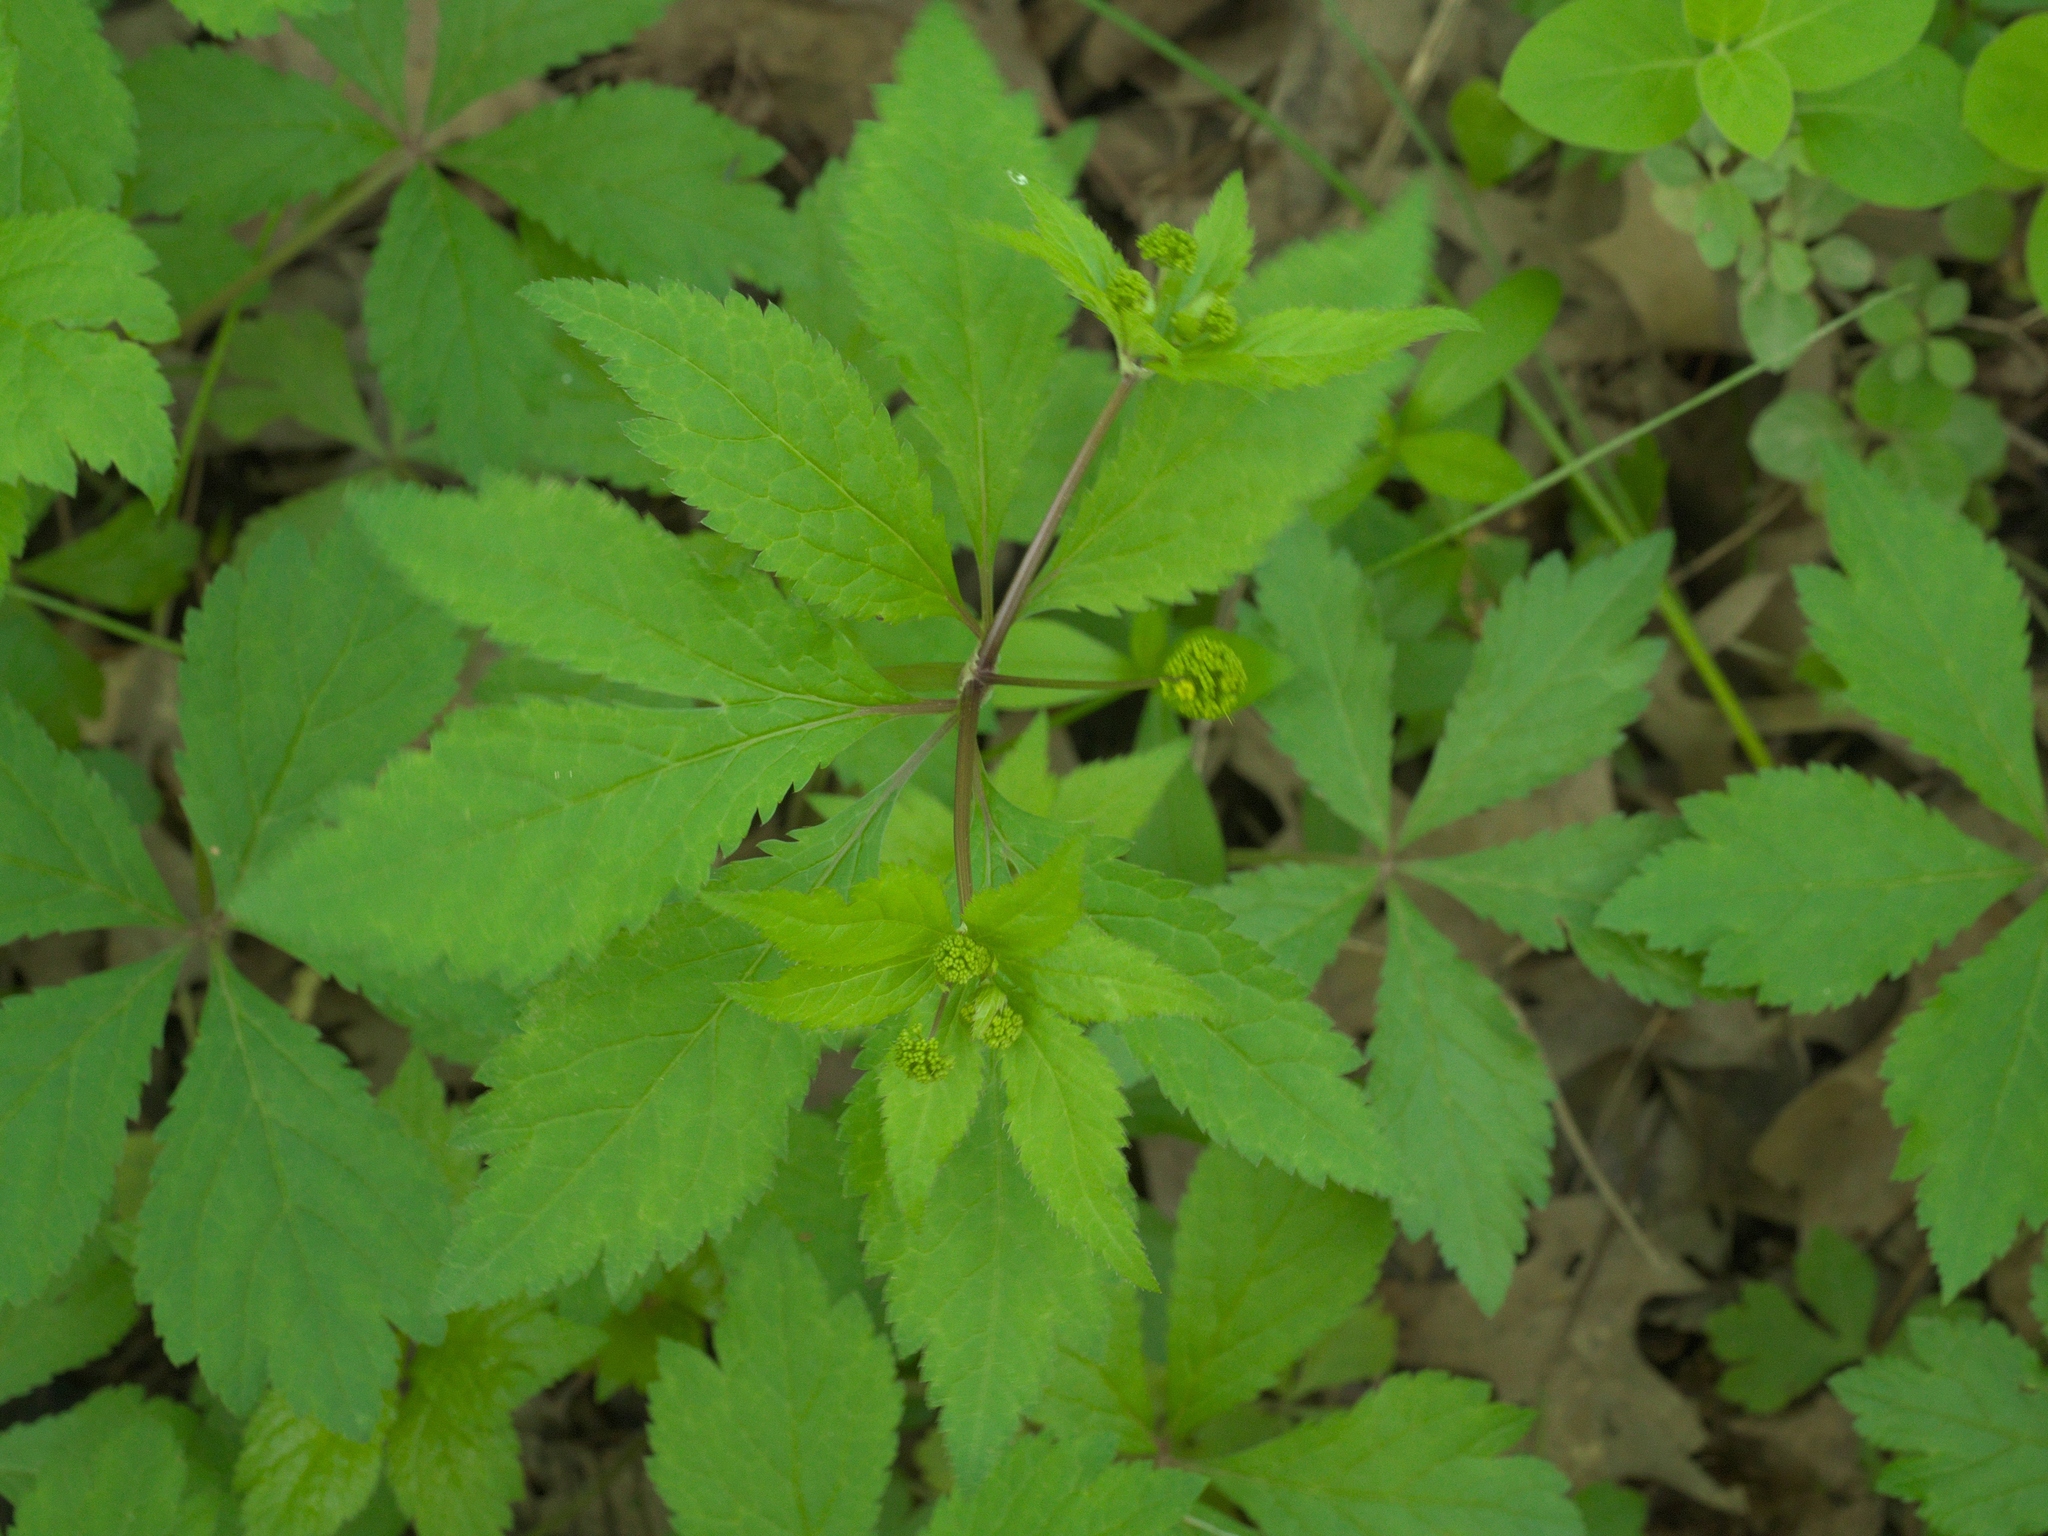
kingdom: Plantae
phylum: Tracheophyta
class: Magnoliopsida
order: Apiales
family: Apiaceae
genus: Sanicula
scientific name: Sanicula odorata
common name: Cluster sanicle
